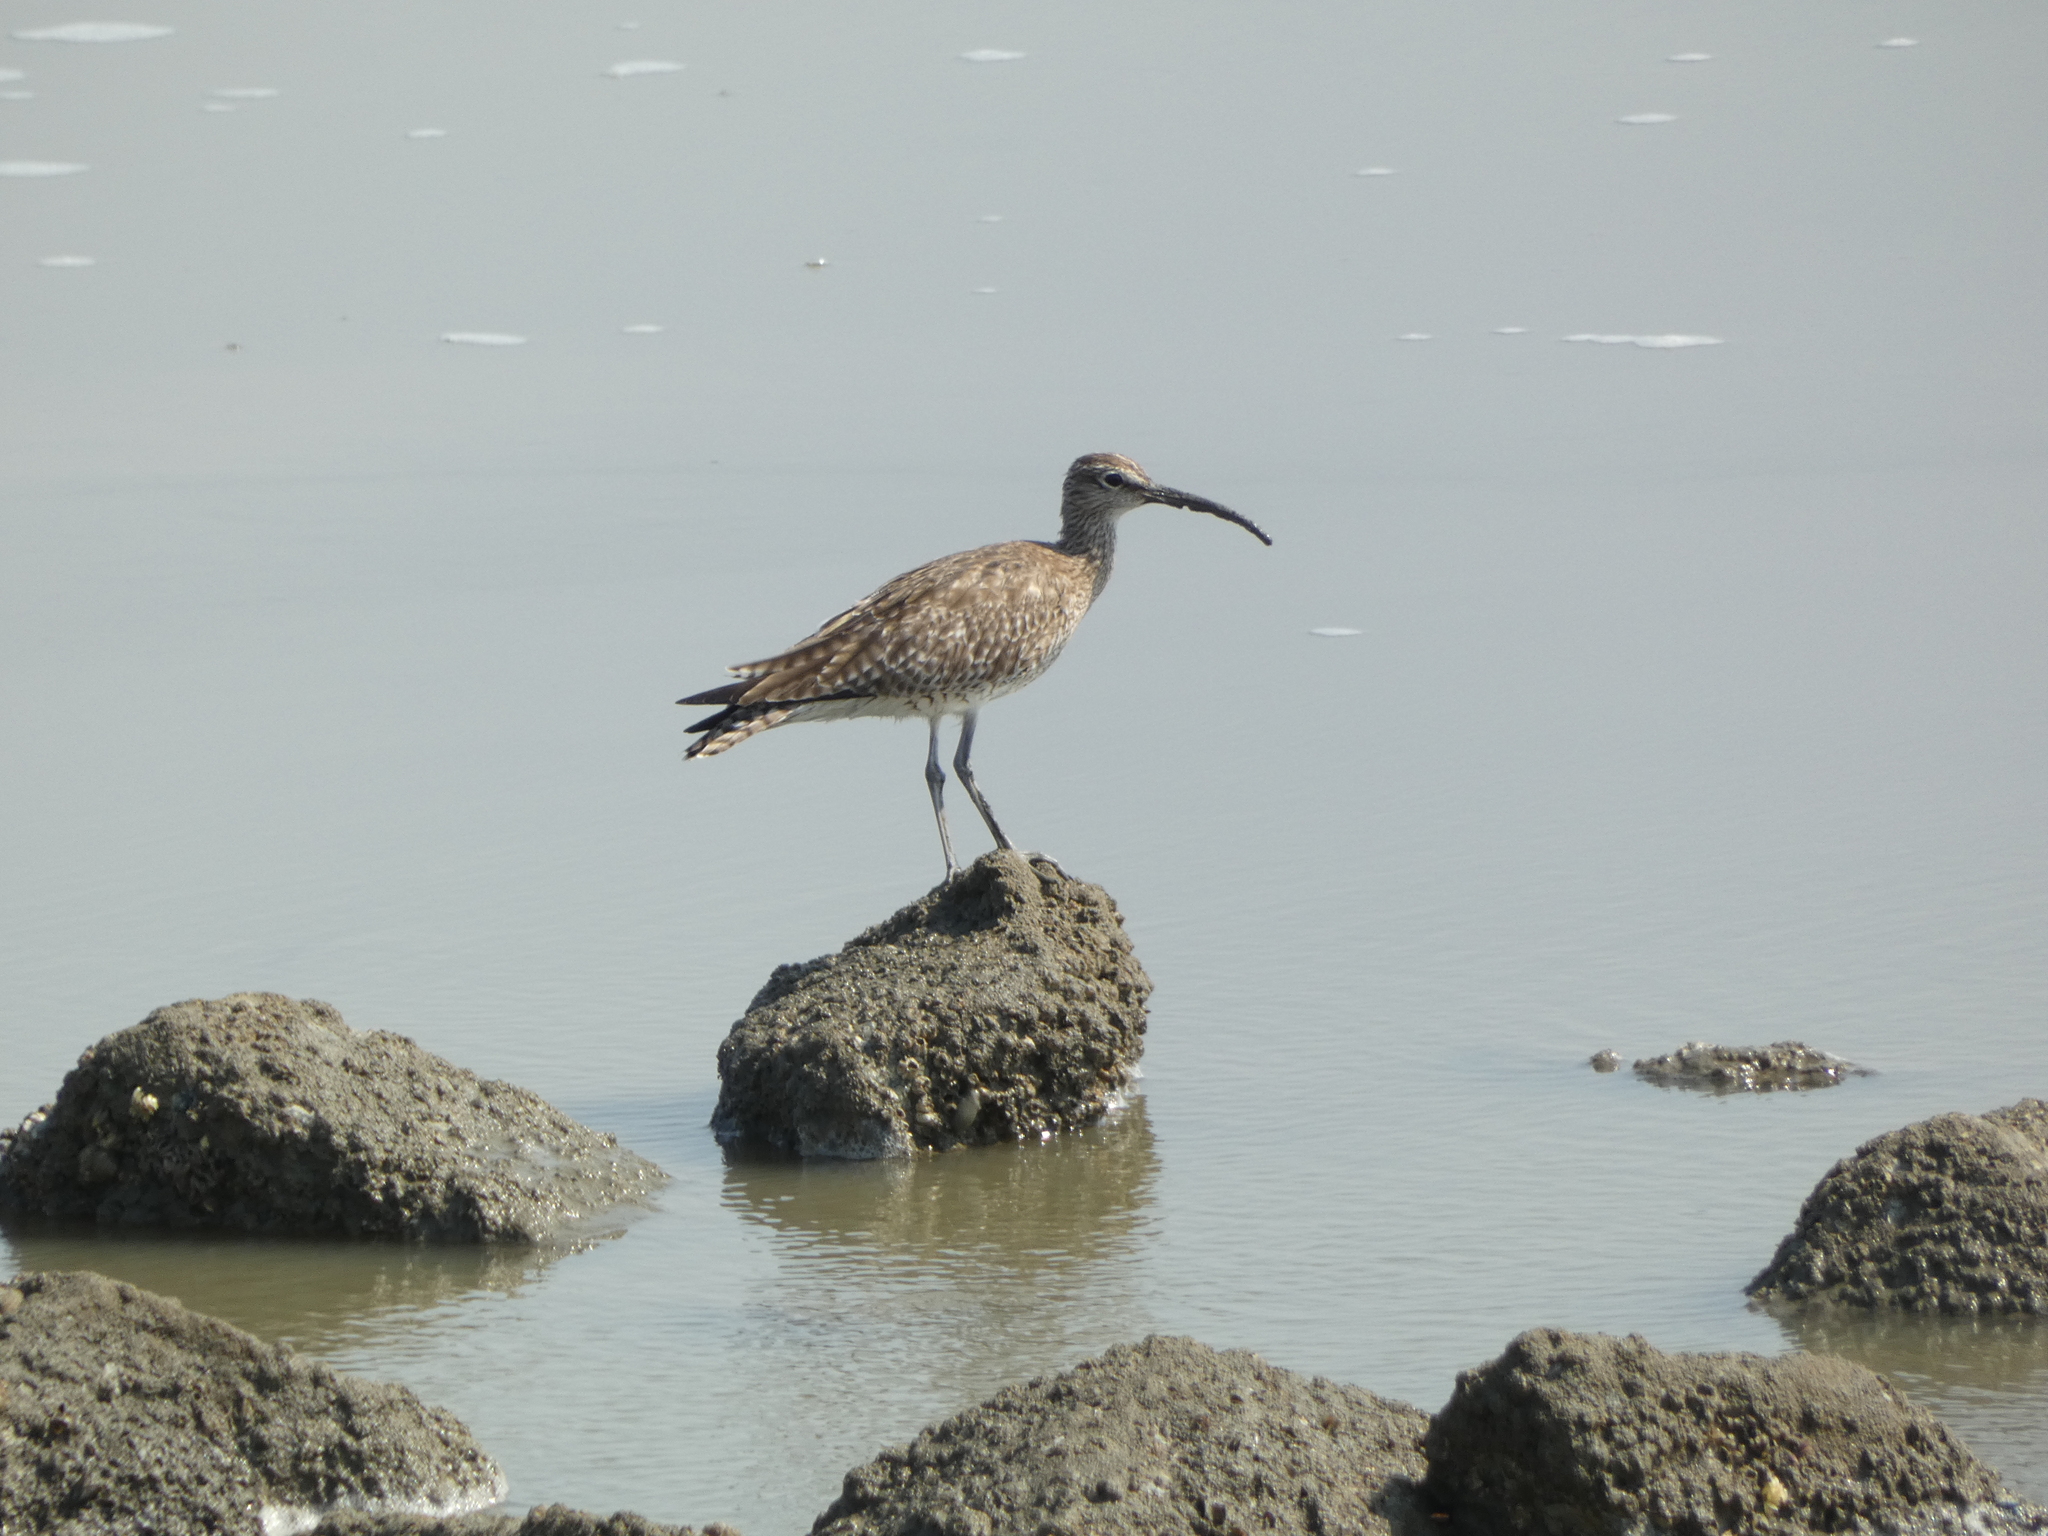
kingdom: Animalia
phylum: Chordata
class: Aves
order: Charadriiformes
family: Scolopacidae
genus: Numenius
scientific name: Numenius phaeopus
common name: Whimbrel
